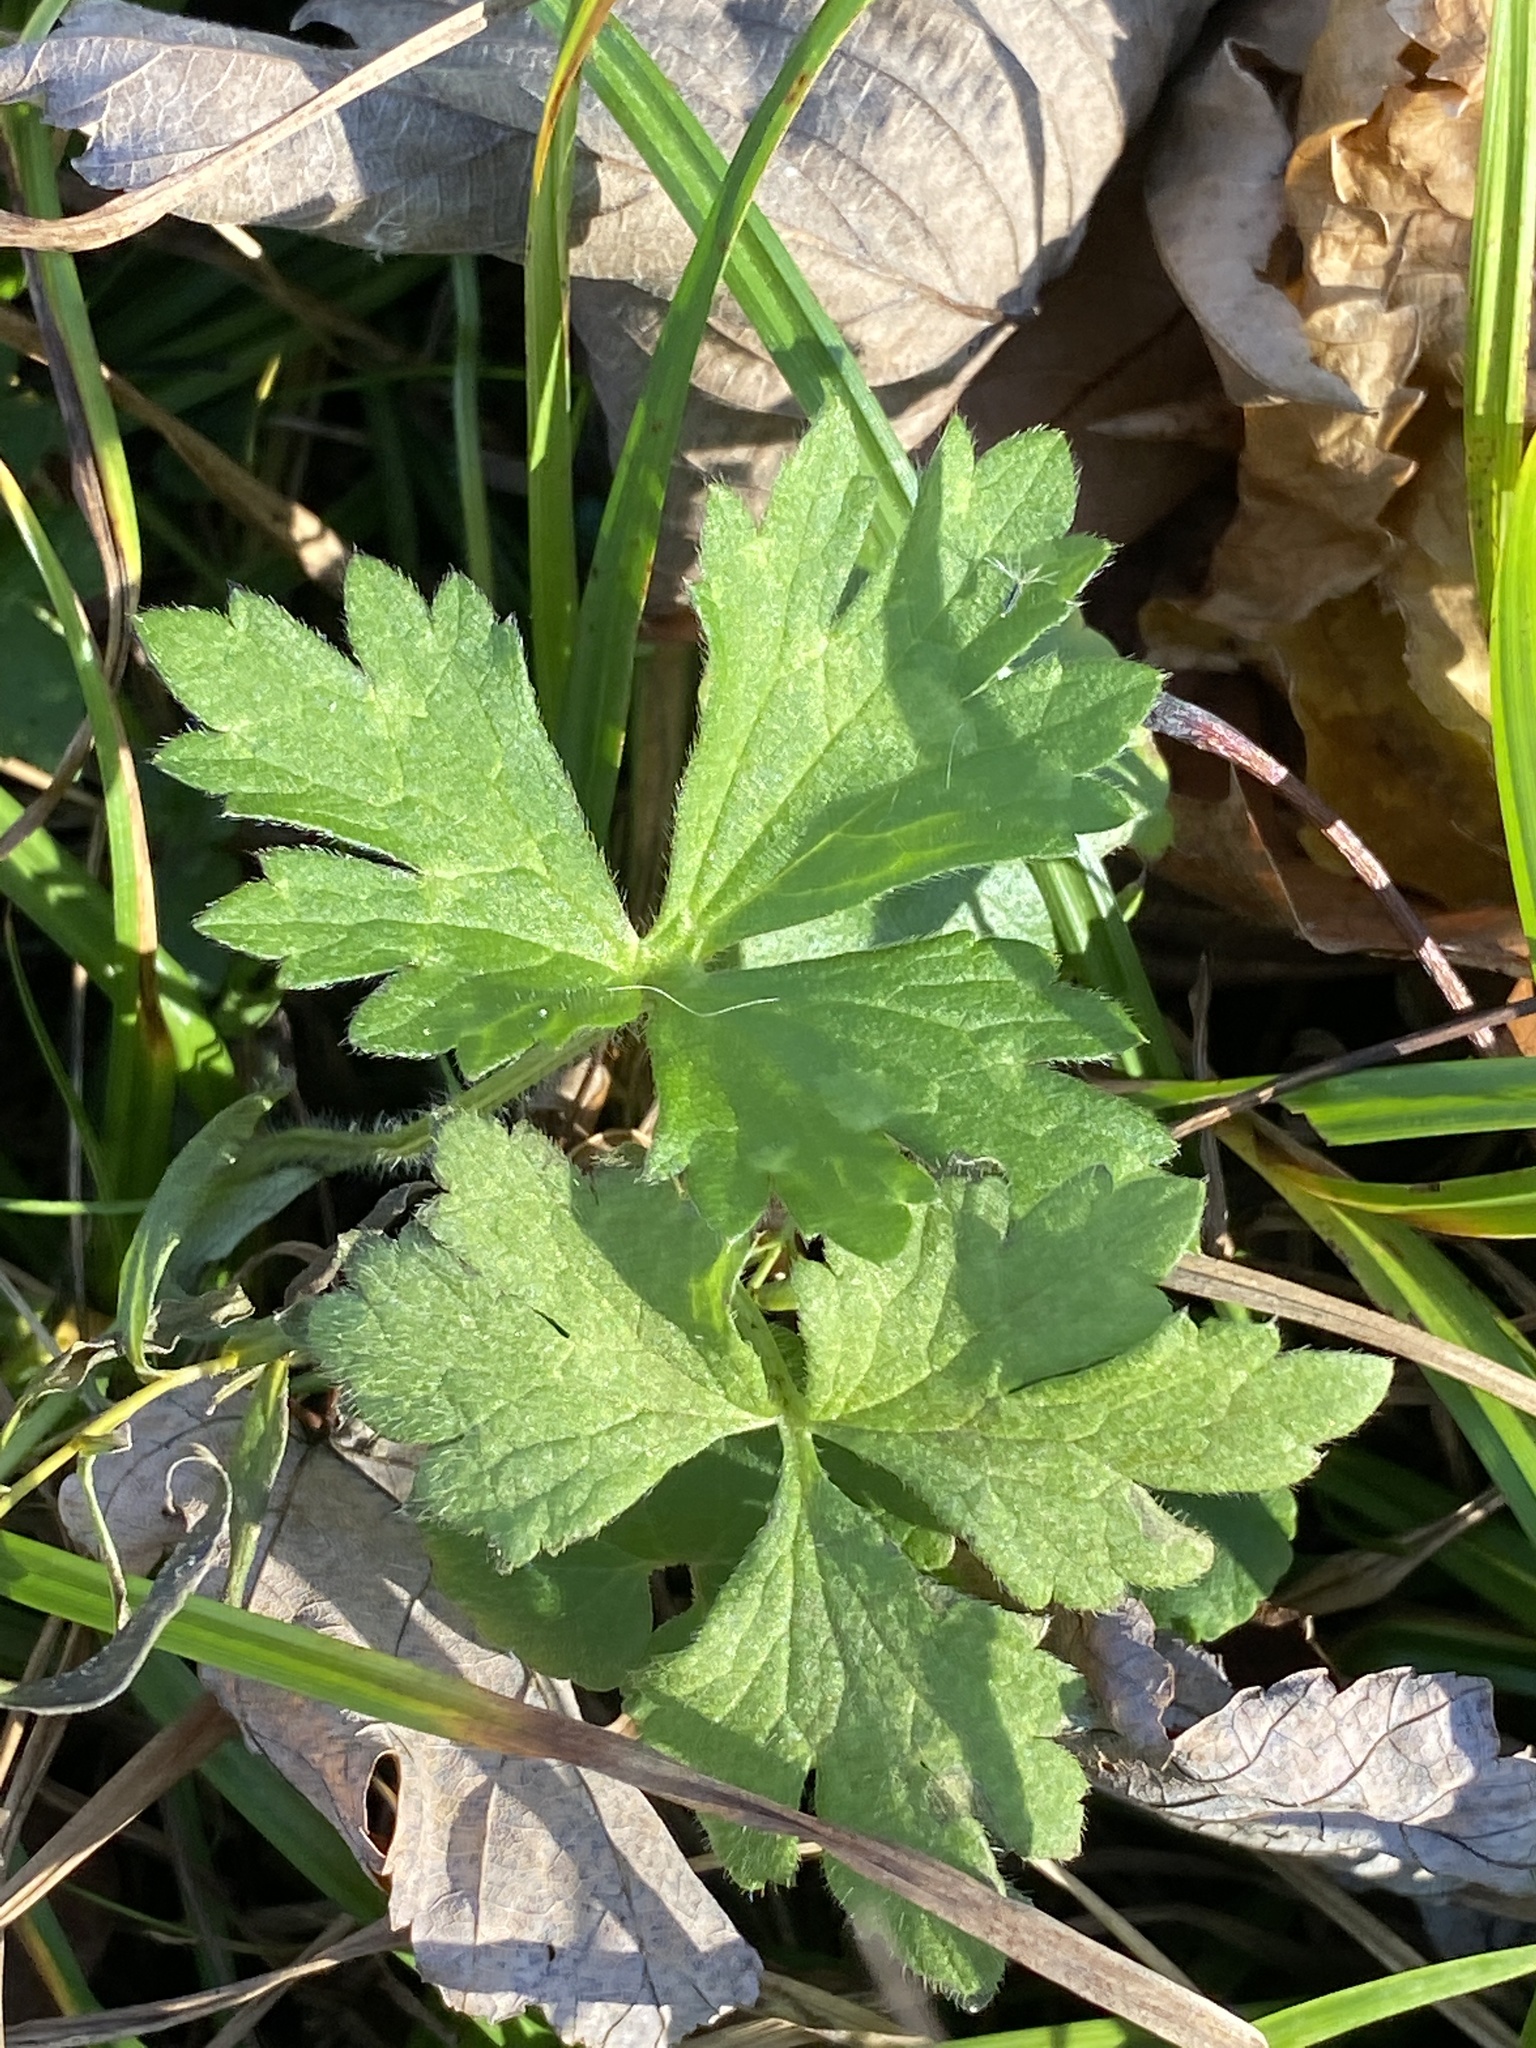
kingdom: Plantae
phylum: Tracheophyta
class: Magnoliopsida
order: Ranunculales
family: Ranunculaceae
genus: Ranunculus
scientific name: Ranunculus repens
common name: Creeping buttercup
